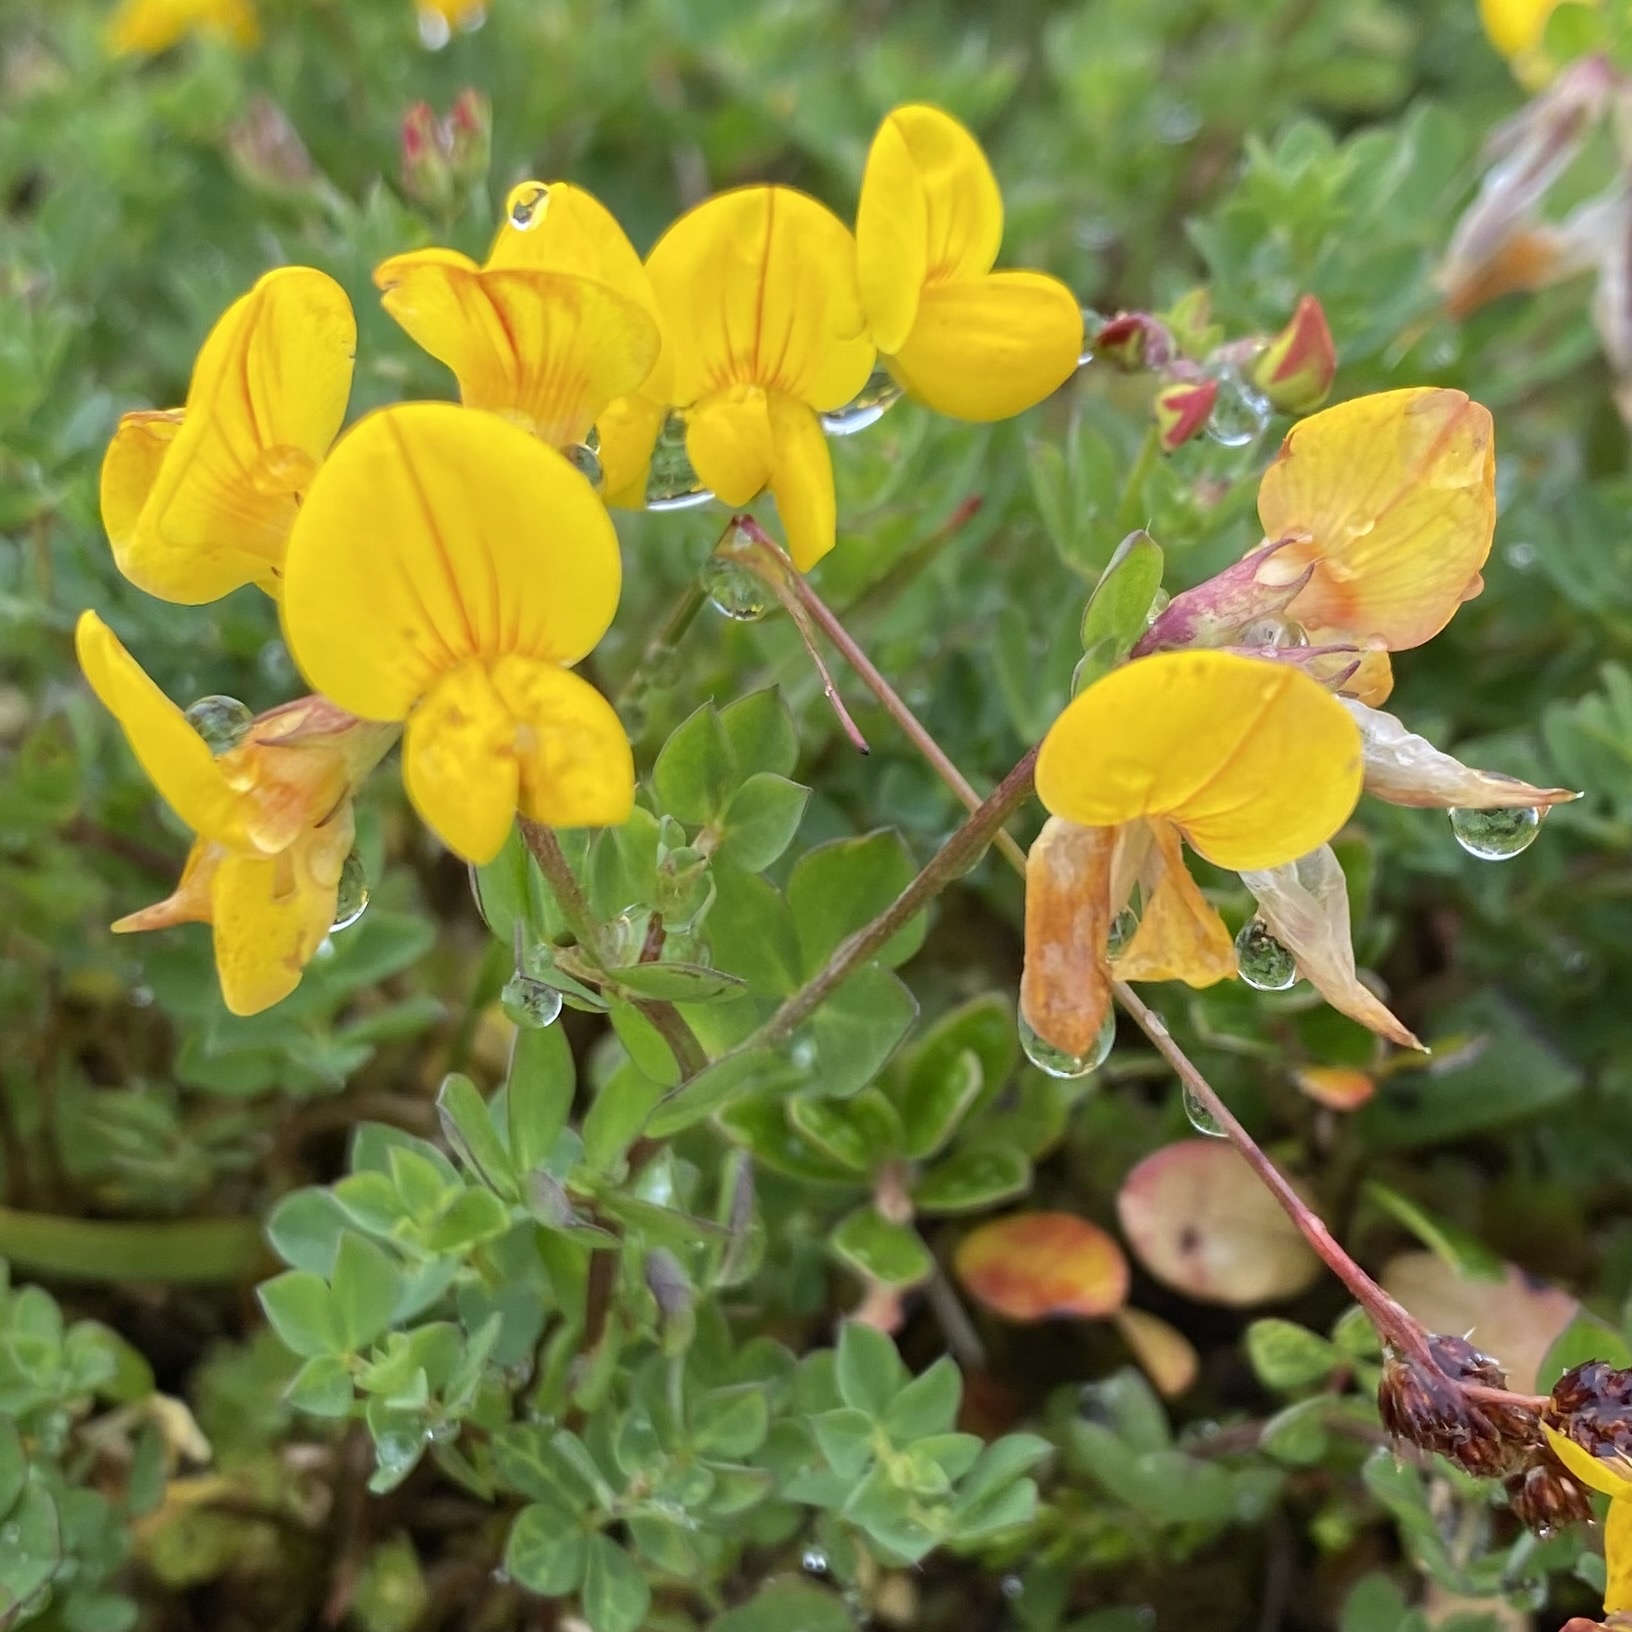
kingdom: Plantae
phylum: Tracheophyta
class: Magnoliopsida
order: Fabales
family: Fabaceae
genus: Lotus
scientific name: Lotus corniculatus
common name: Common bird's-foot-trefoil
